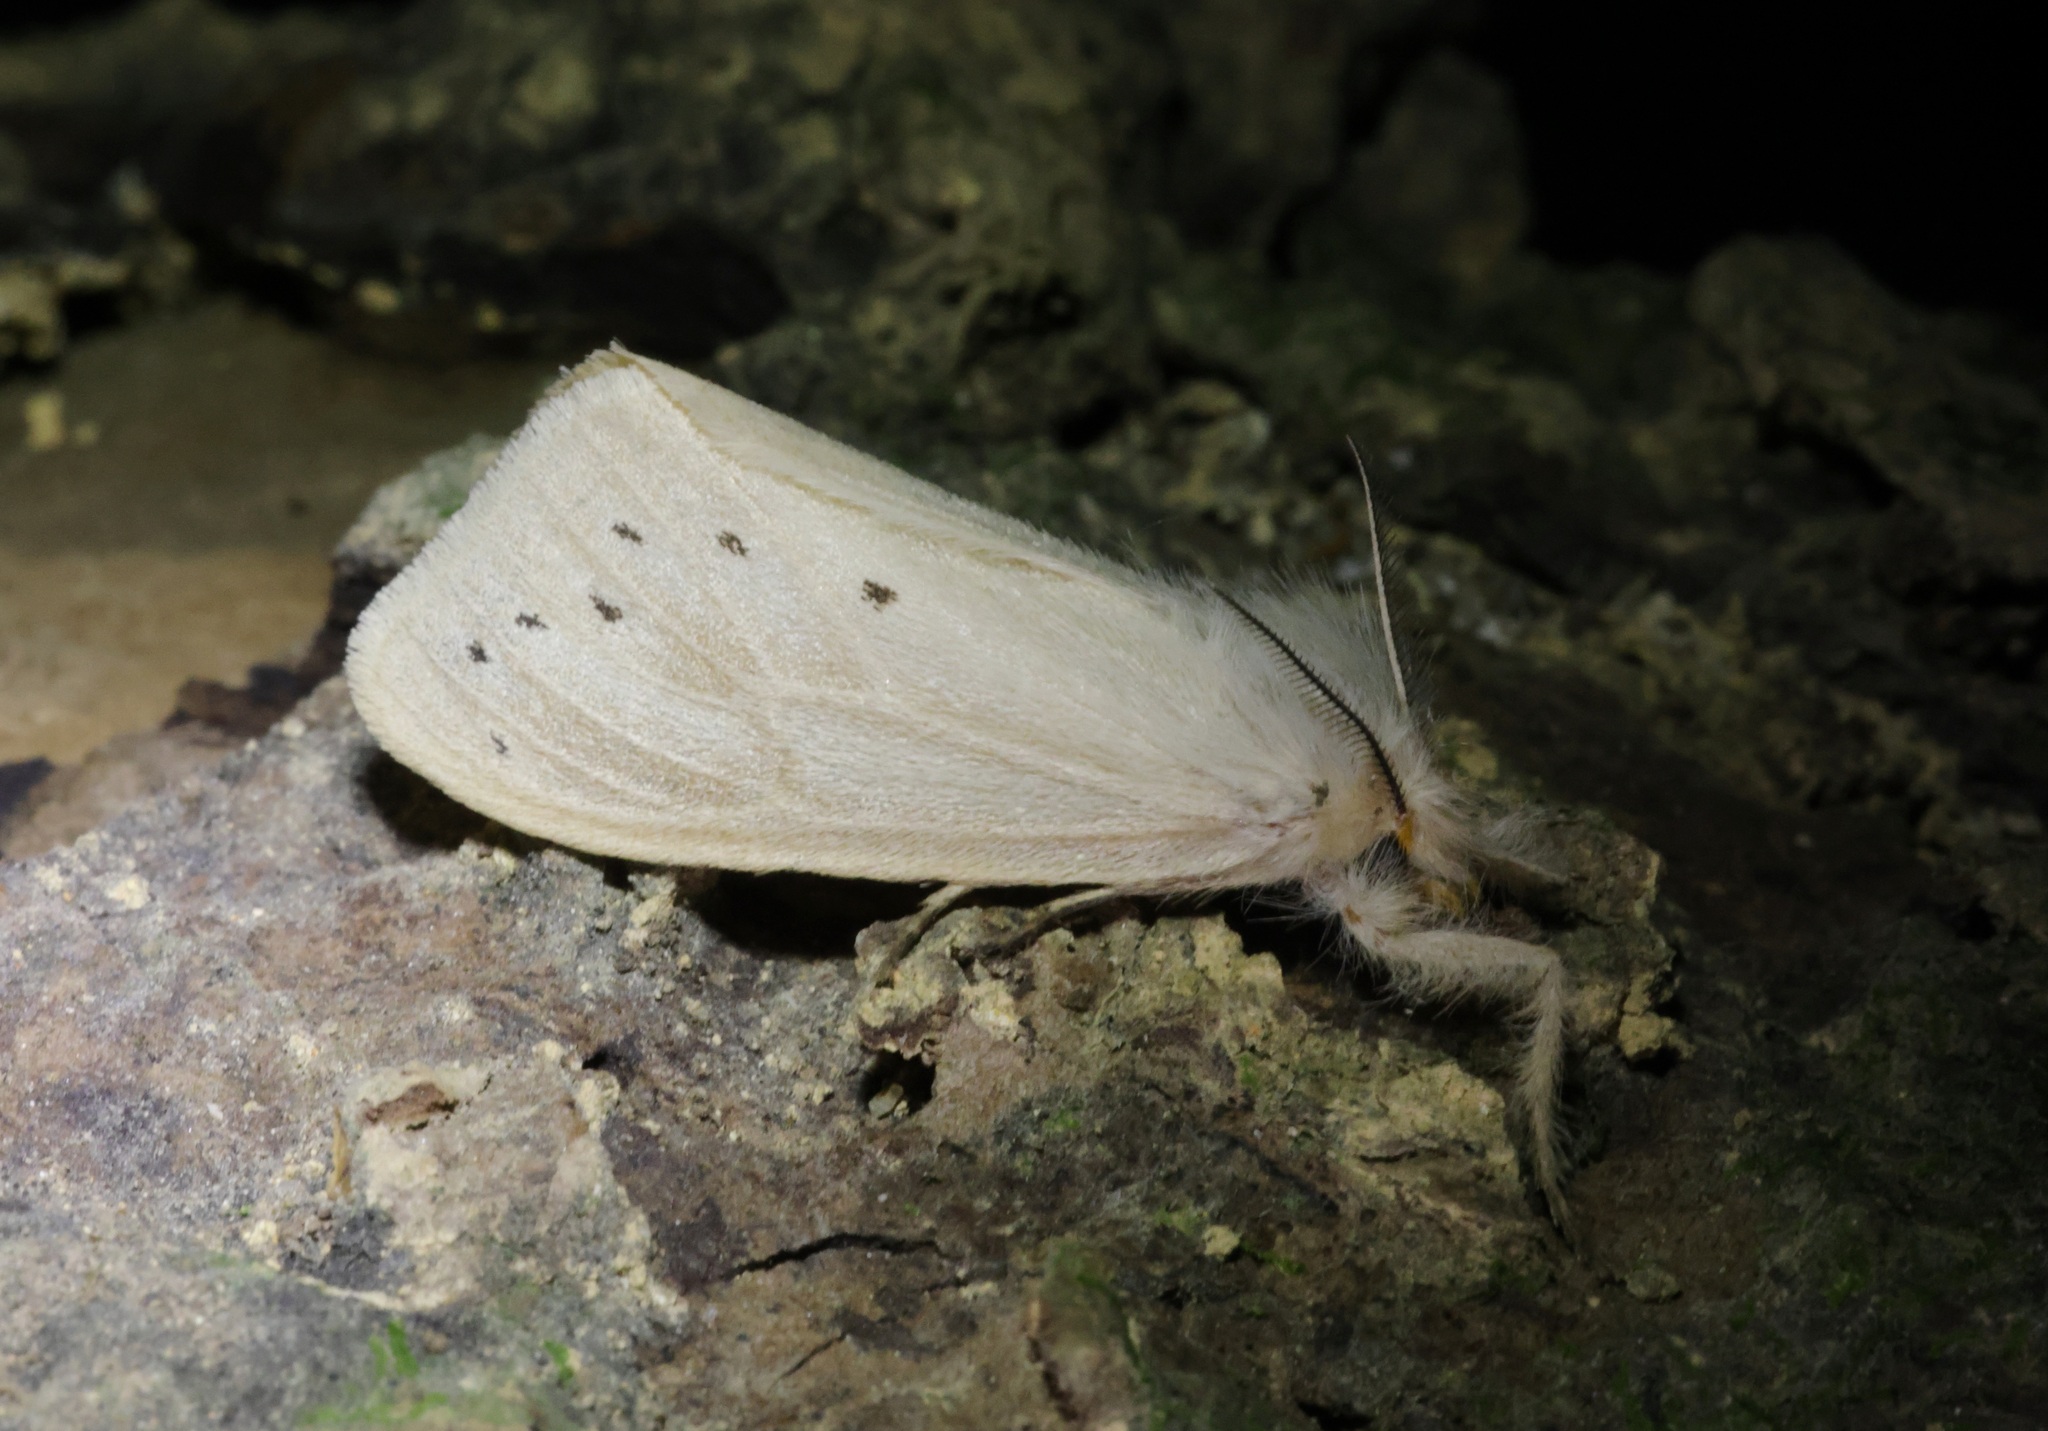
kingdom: Animalia
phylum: Arthropoda
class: Insecta
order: Lepidoptera
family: Erebidae
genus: Laelia
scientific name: Laelia anamesa
